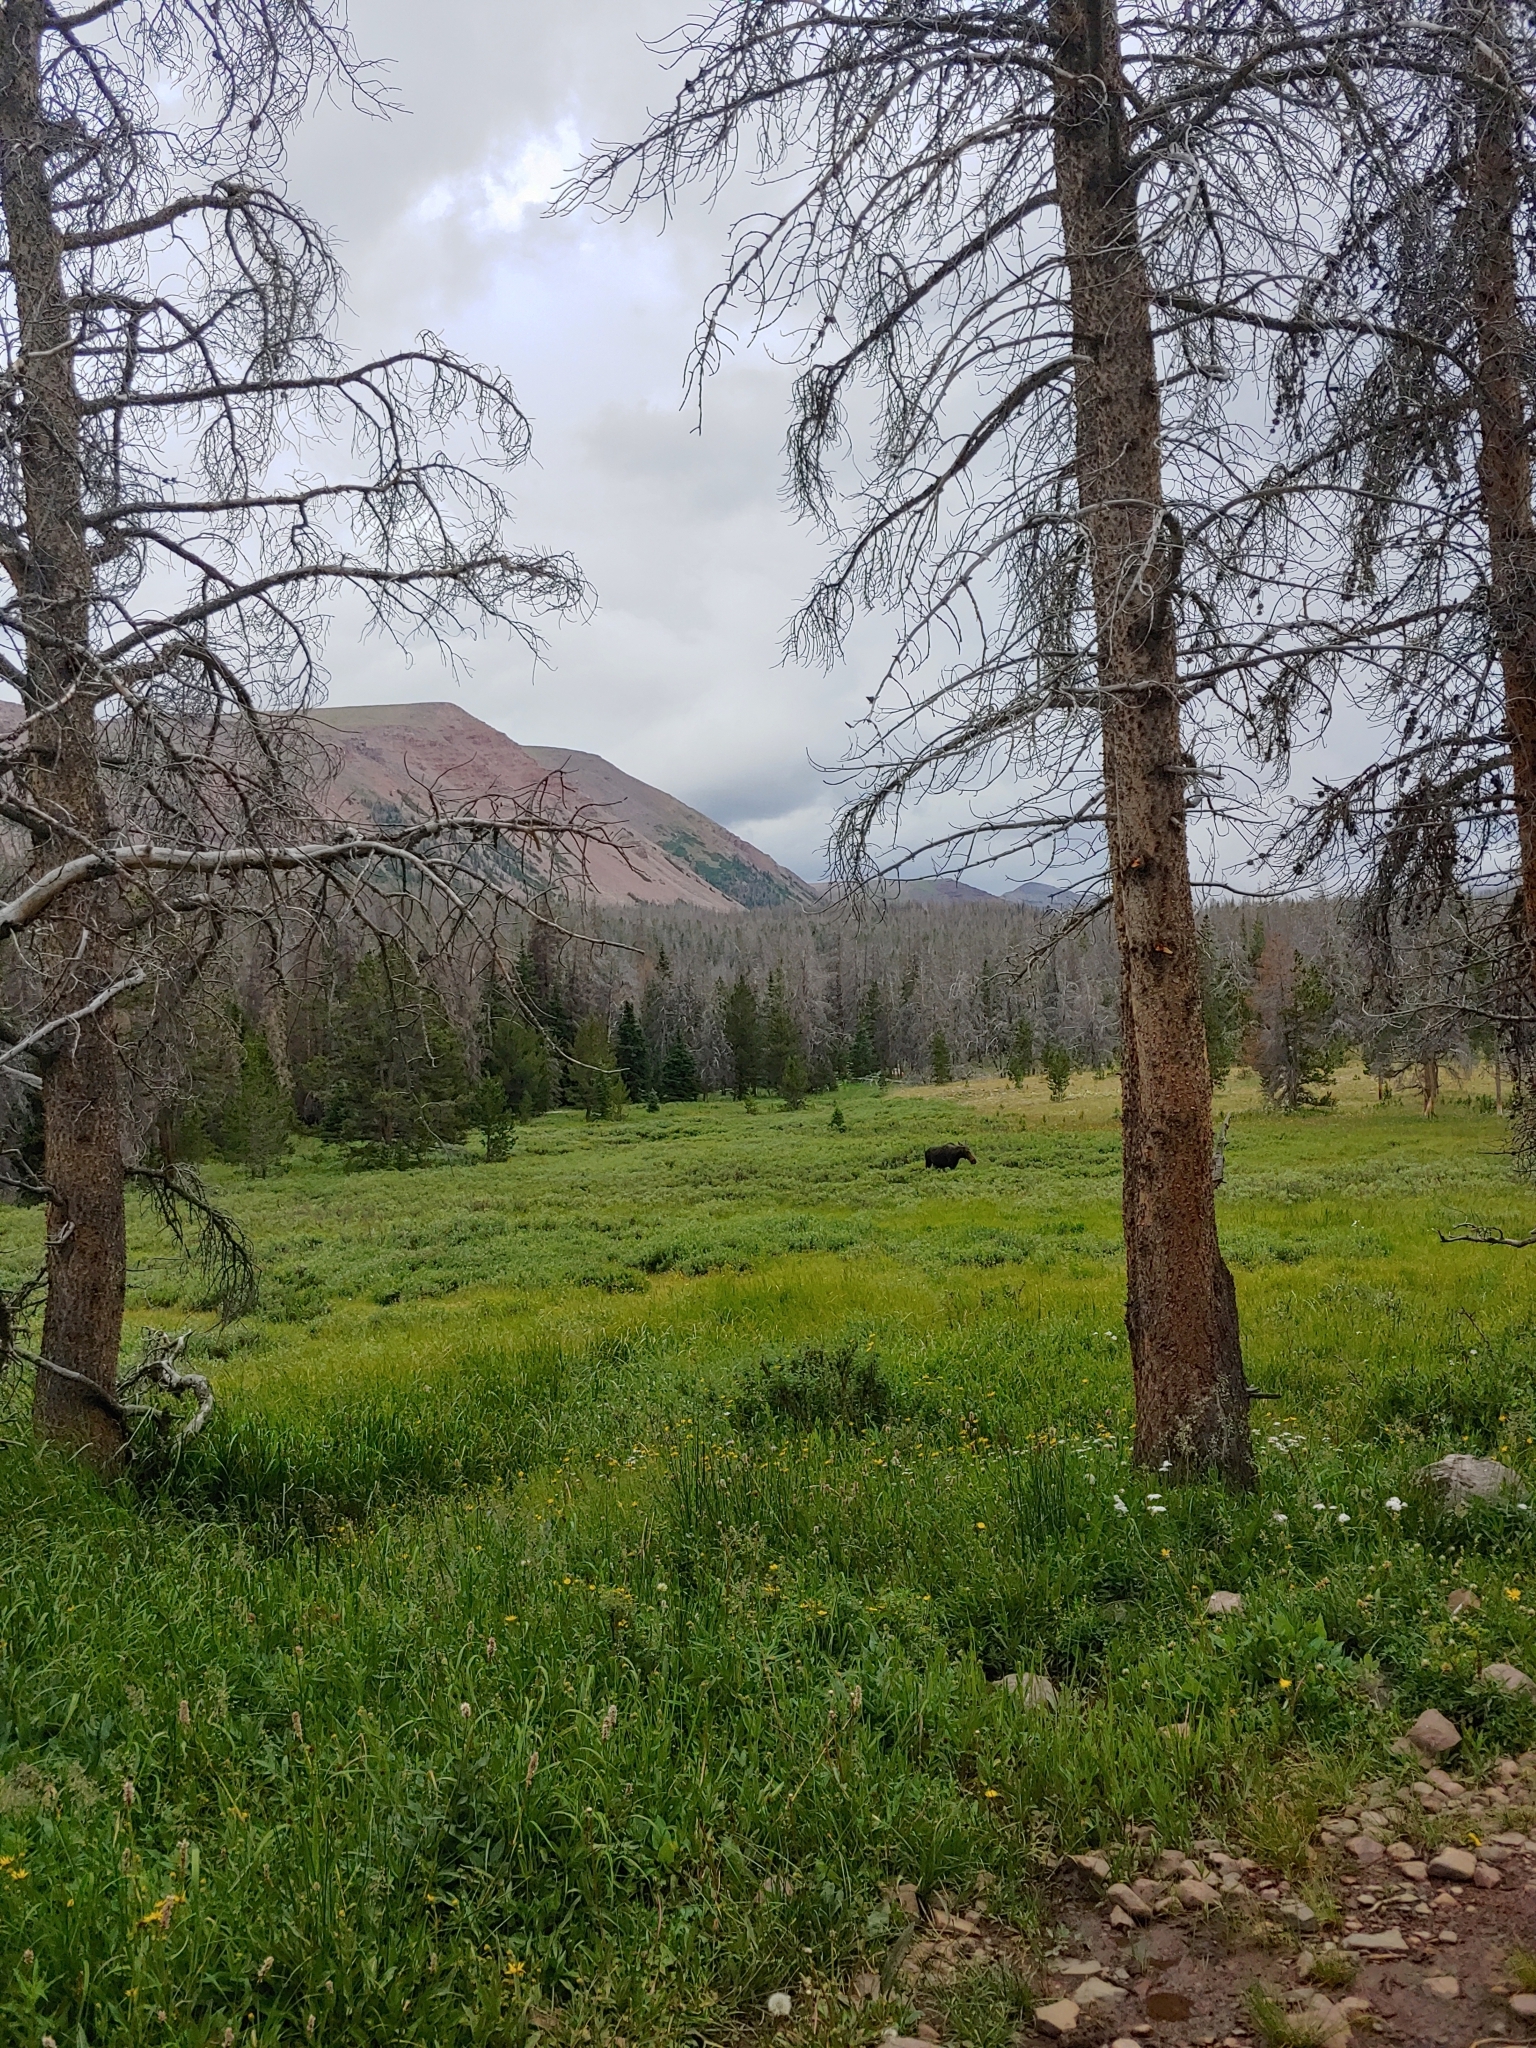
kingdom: Animalia
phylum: Chordata
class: Mammalia
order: Artiodactyla
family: Cervidae
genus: Alces
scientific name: Alces alces
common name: Moose
